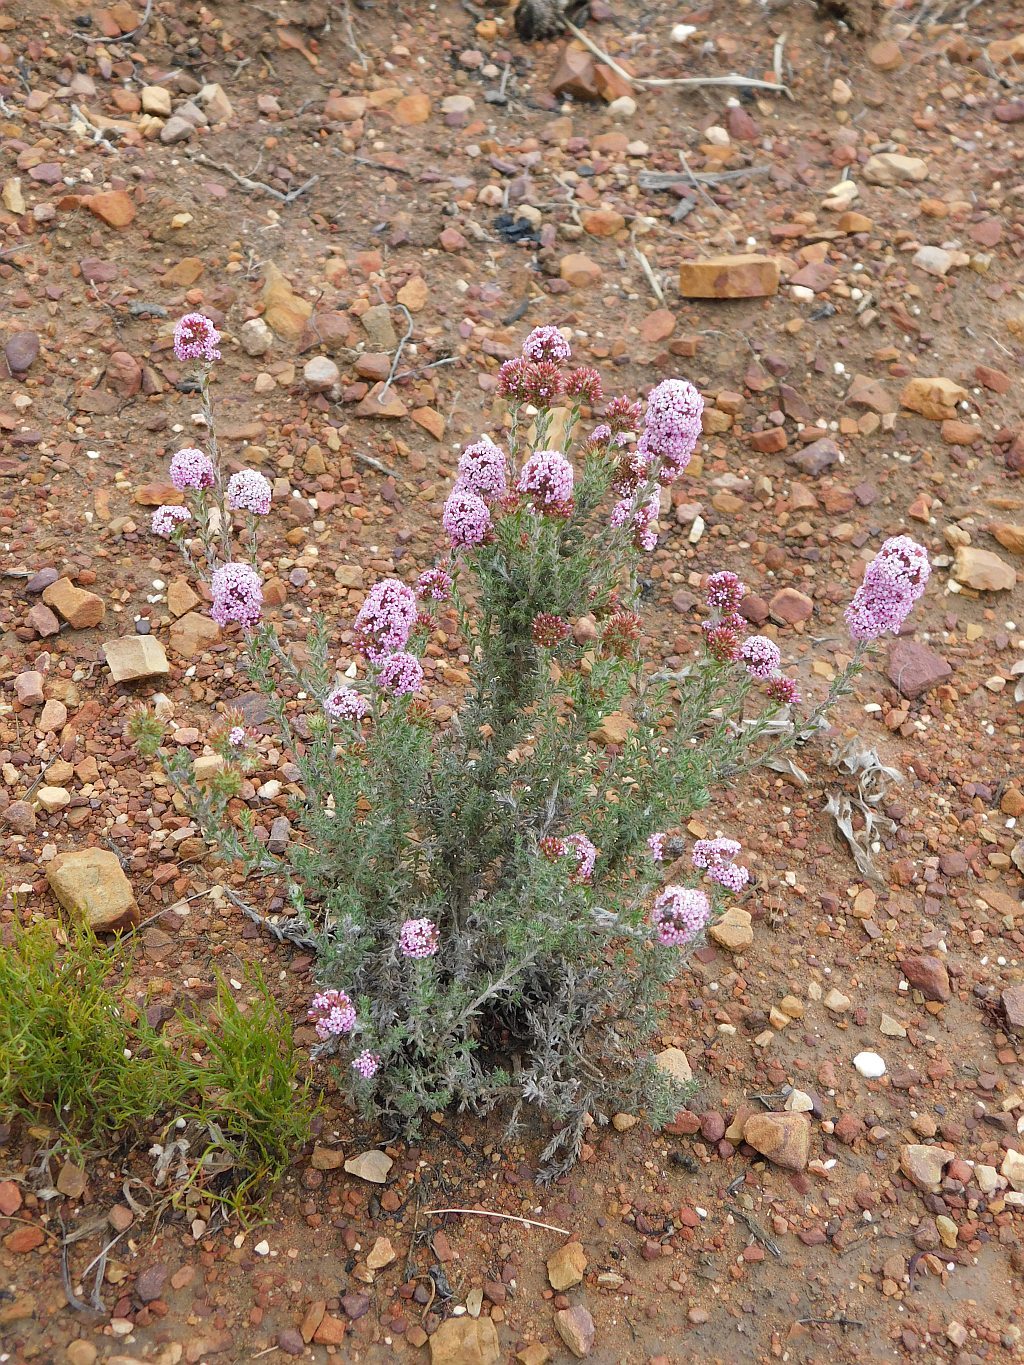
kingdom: Plantae
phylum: Tracheophyta
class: Magnoliopsida
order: Asterales
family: Asteraceae
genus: Stoebe
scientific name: Stoebe capitata
